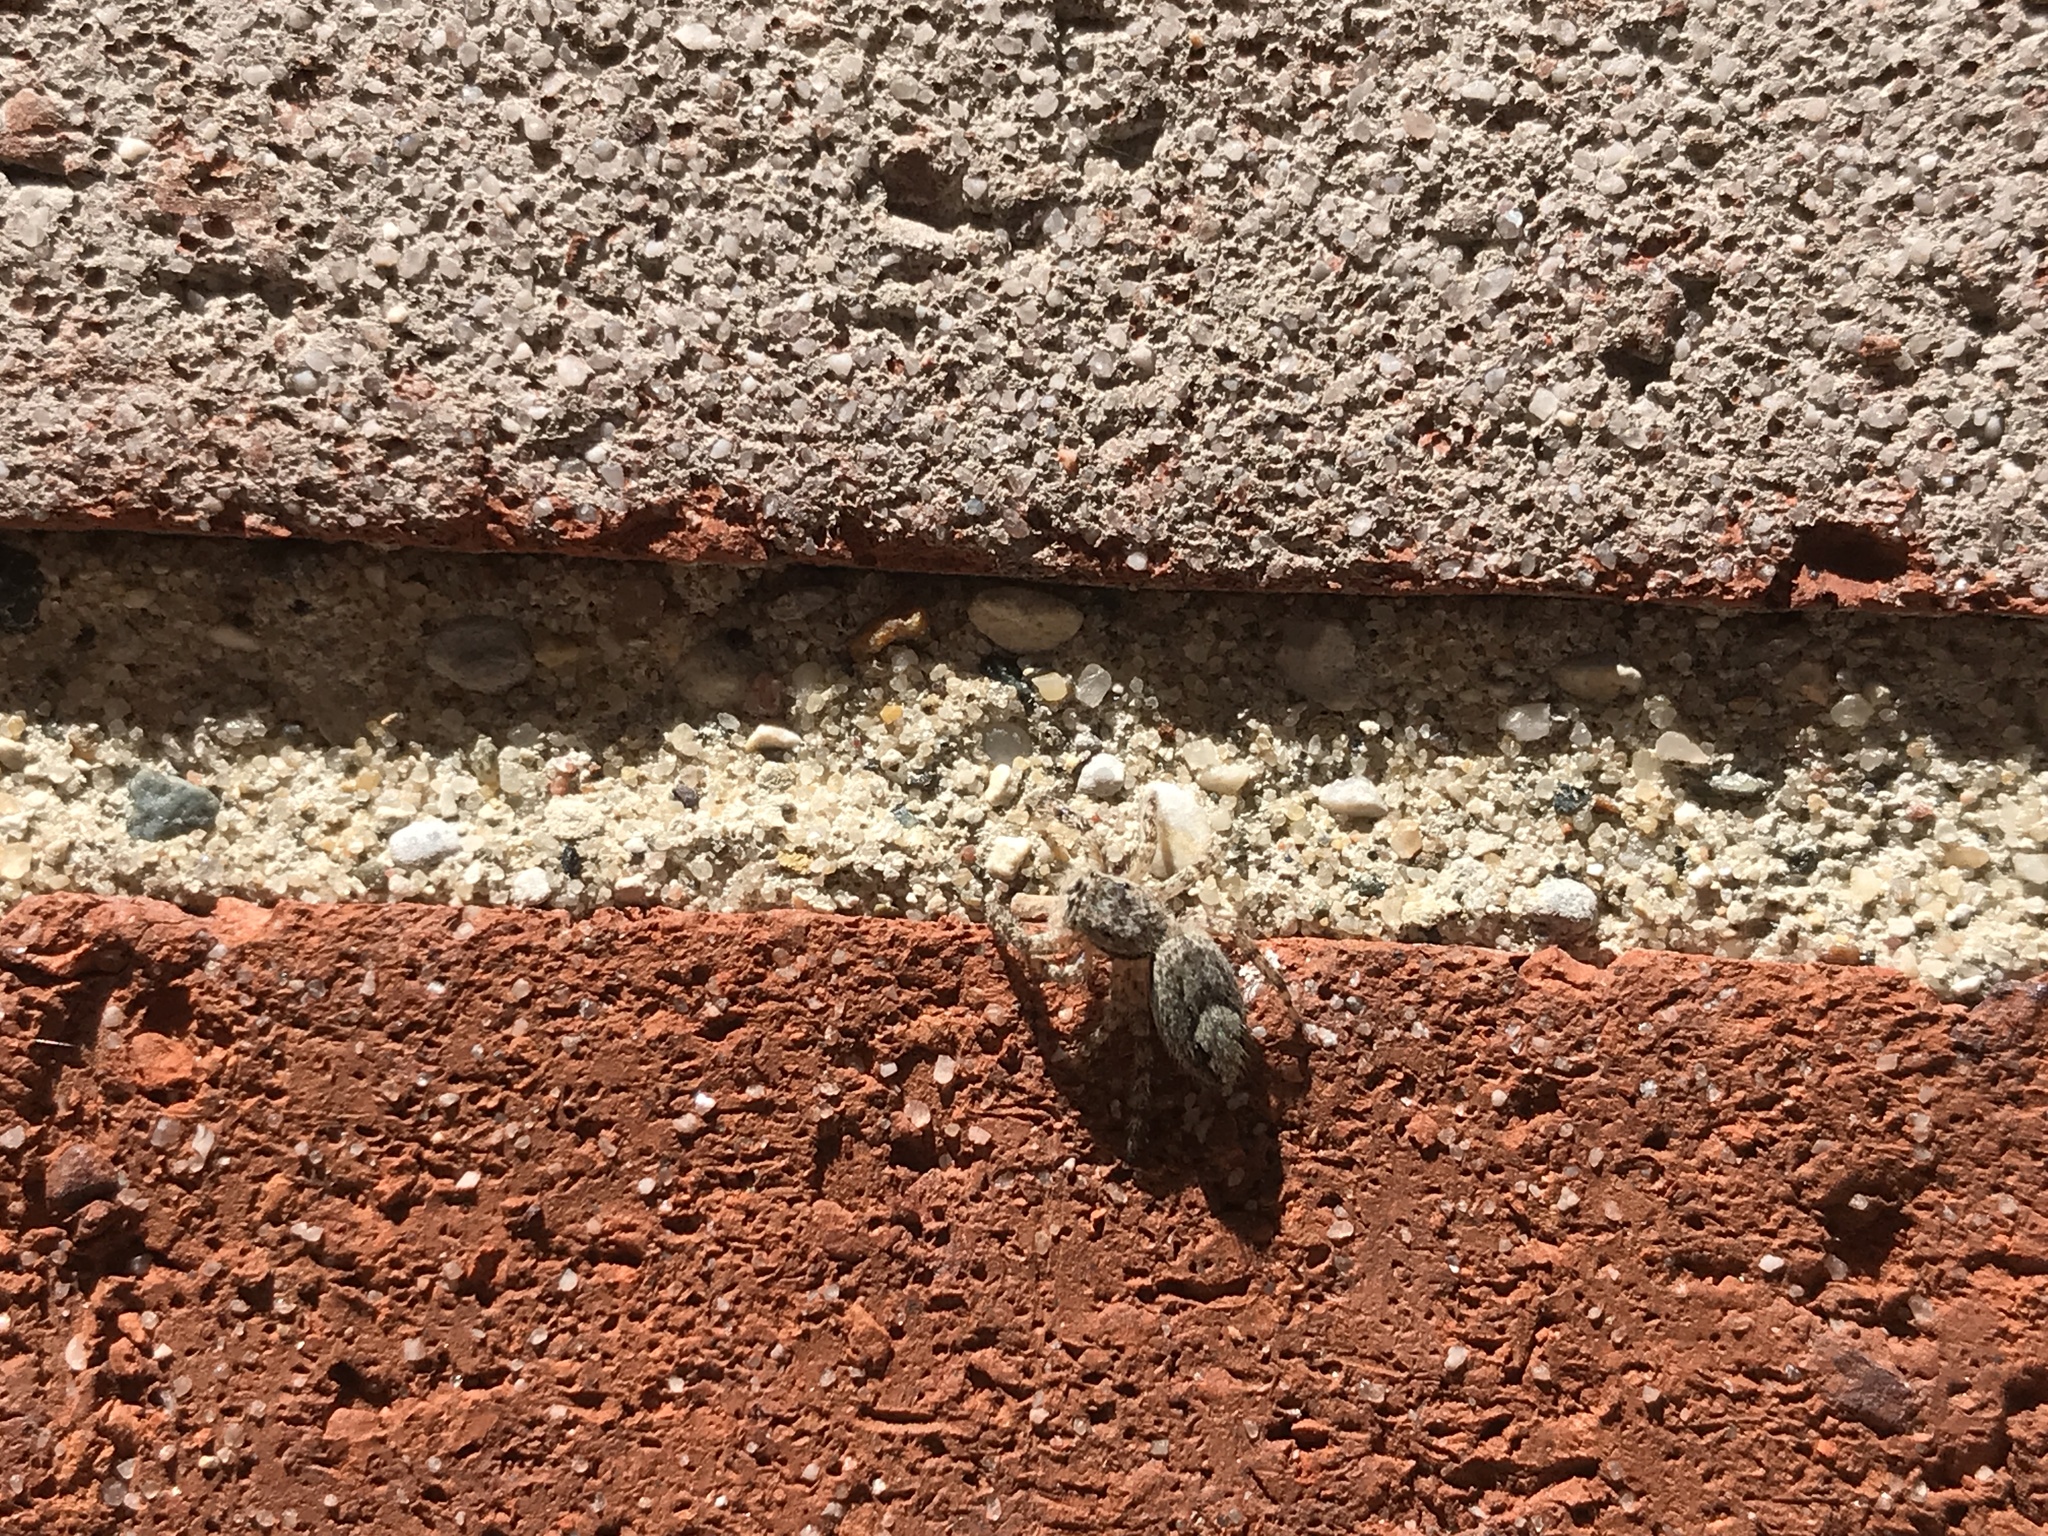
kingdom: Animalia
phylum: Arthropoda
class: Arachnida
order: Araneae
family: Salticidae
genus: Platycryptus
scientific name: Platycryptus undatus
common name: Tan jumping spider
